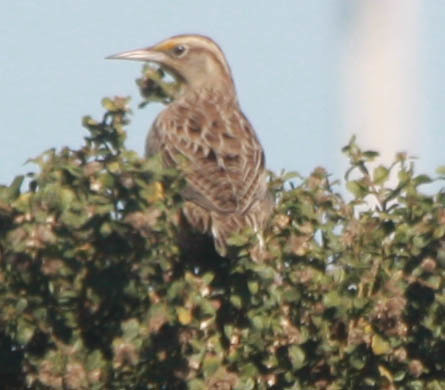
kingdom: Animalia
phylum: Chordata
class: Aves
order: Passeriformes
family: Icteridae
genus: Sturnella
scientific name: Sturnella neglecta
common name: Western meadowlark
